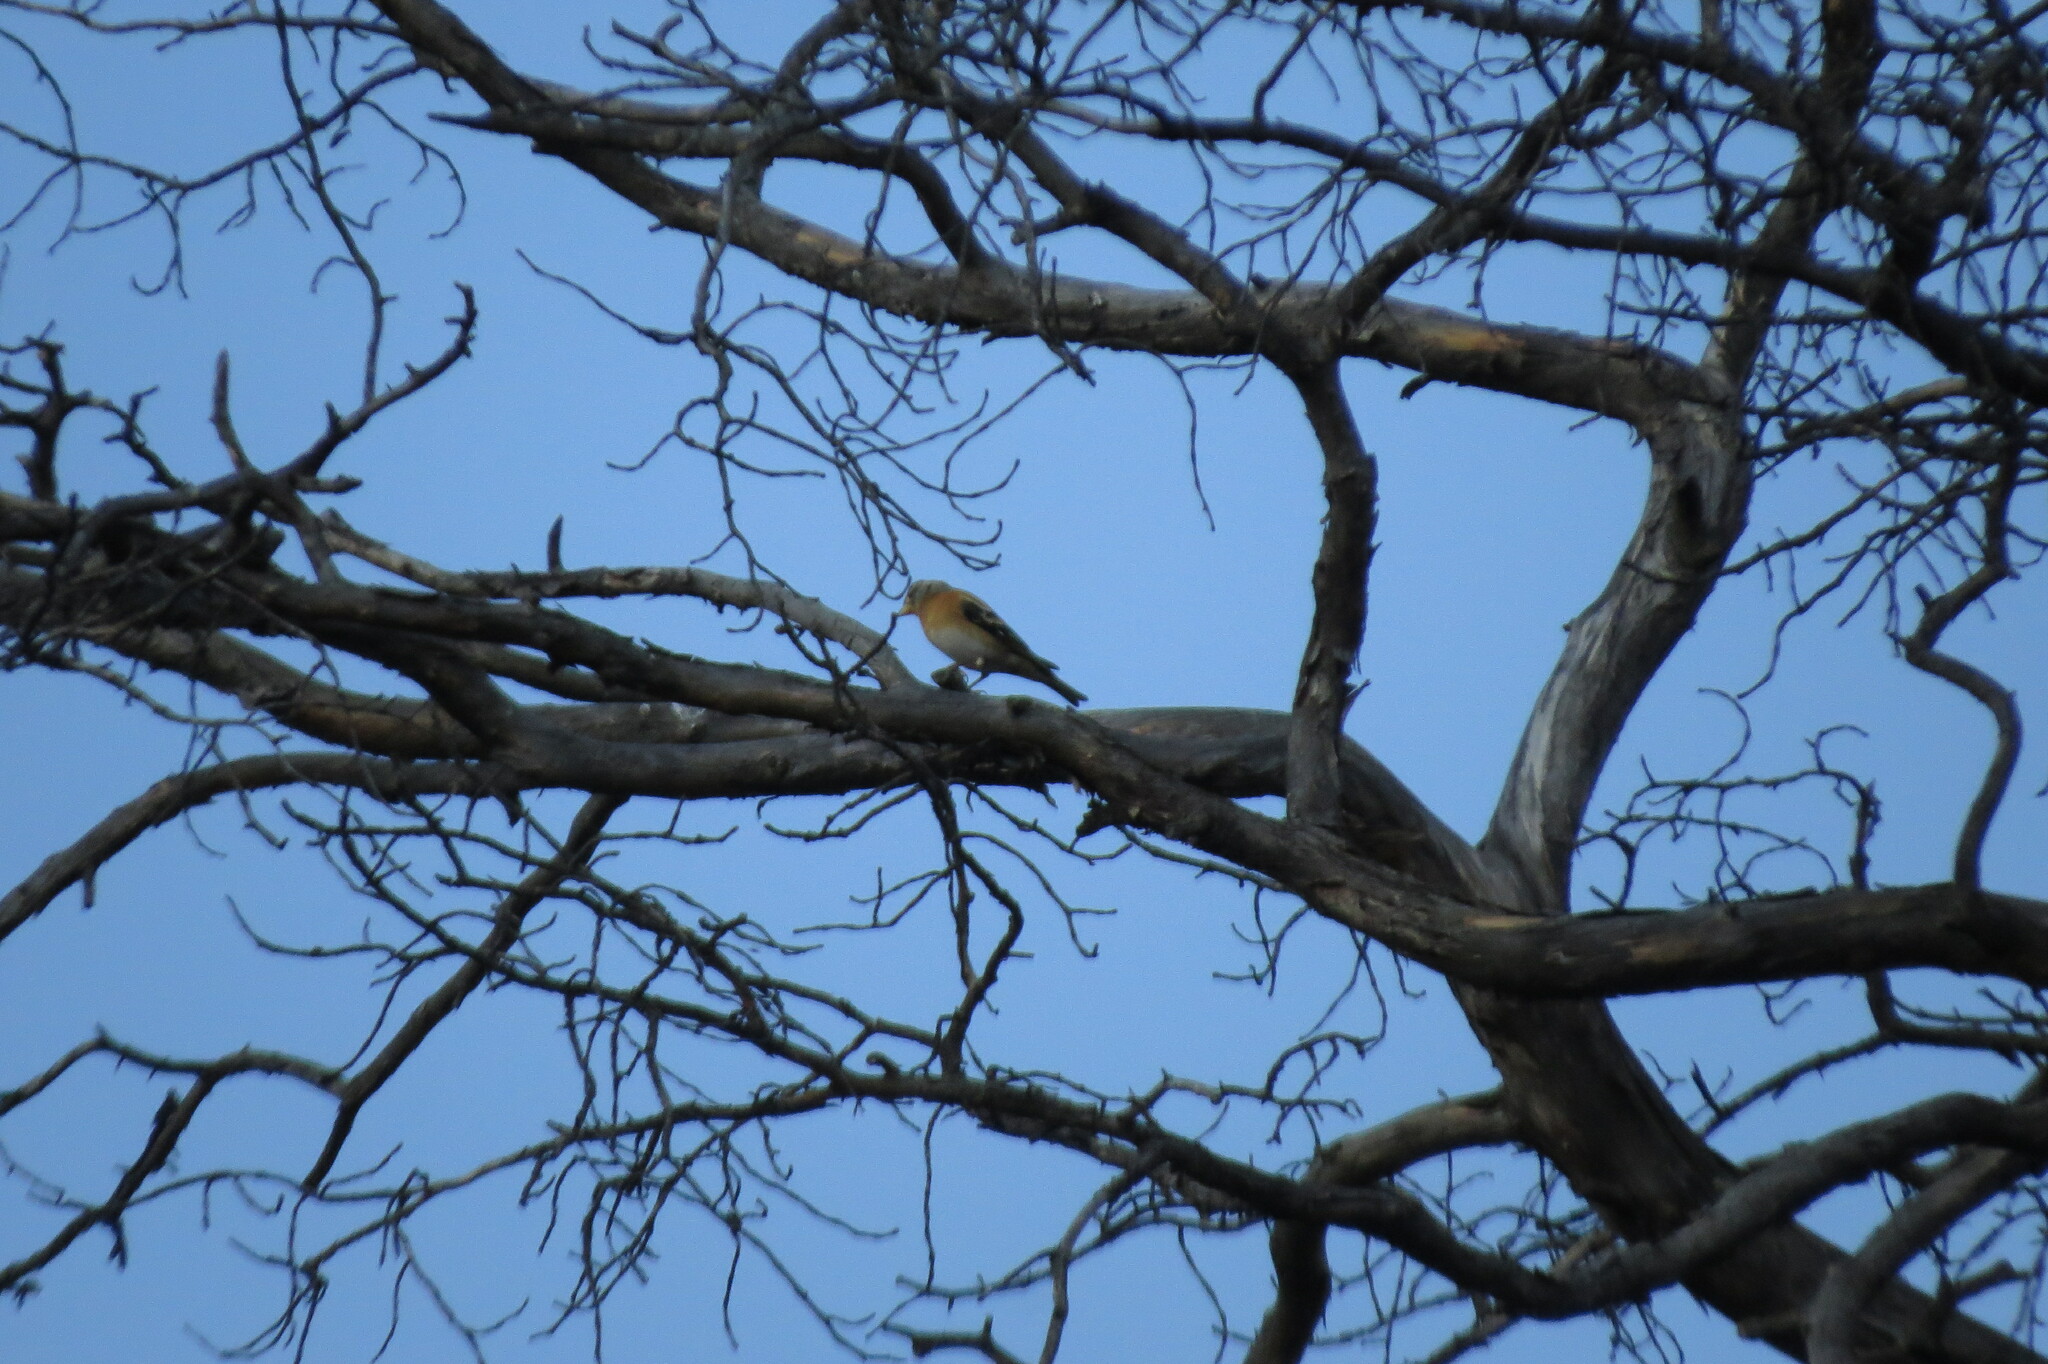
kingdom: Animalia
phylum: Chordata
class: Aves
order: Passeriformes
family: Fringillidae
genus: Fringilla
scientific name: Fringilla montifringilla
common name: Brambling
